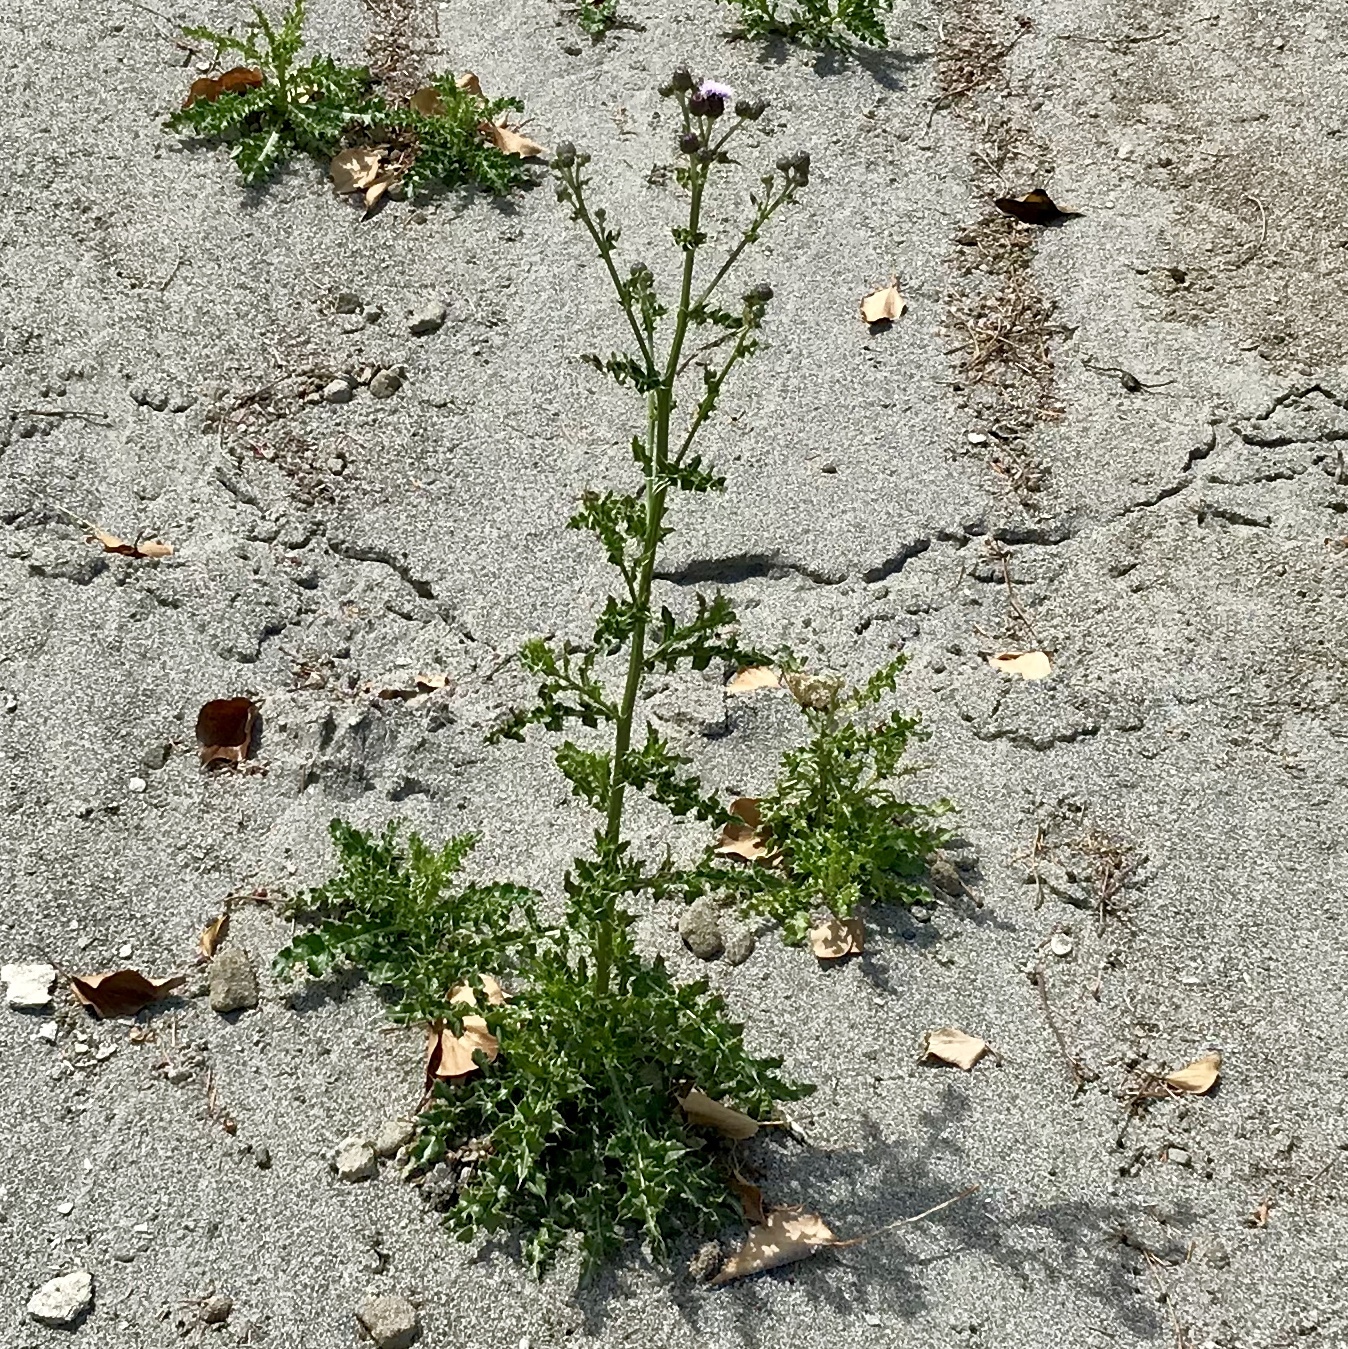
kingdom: Plantae
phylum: Tracheophyta
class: Magnoliopsida
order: Asterales
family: Asteraceae
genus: Cirsium
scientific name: Cirsium arvense
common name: Creeping thistle
